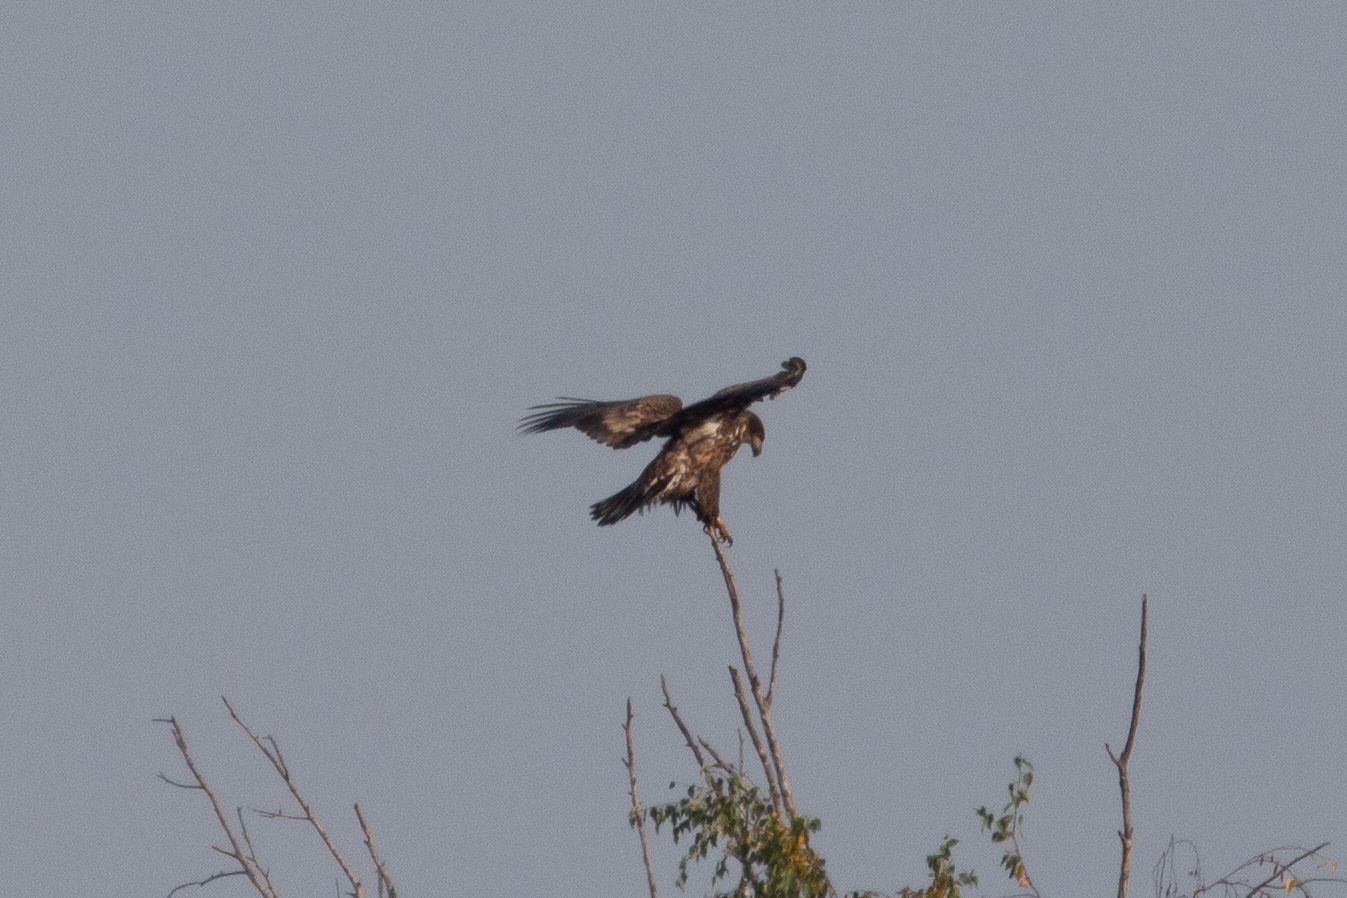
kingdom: Animalia
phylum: Chordata
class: Aves
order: Accipitriformes
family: Accipitridae
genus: Haliaeetus
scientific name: Haliaeetus albicilla
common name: White-tailed eagle
